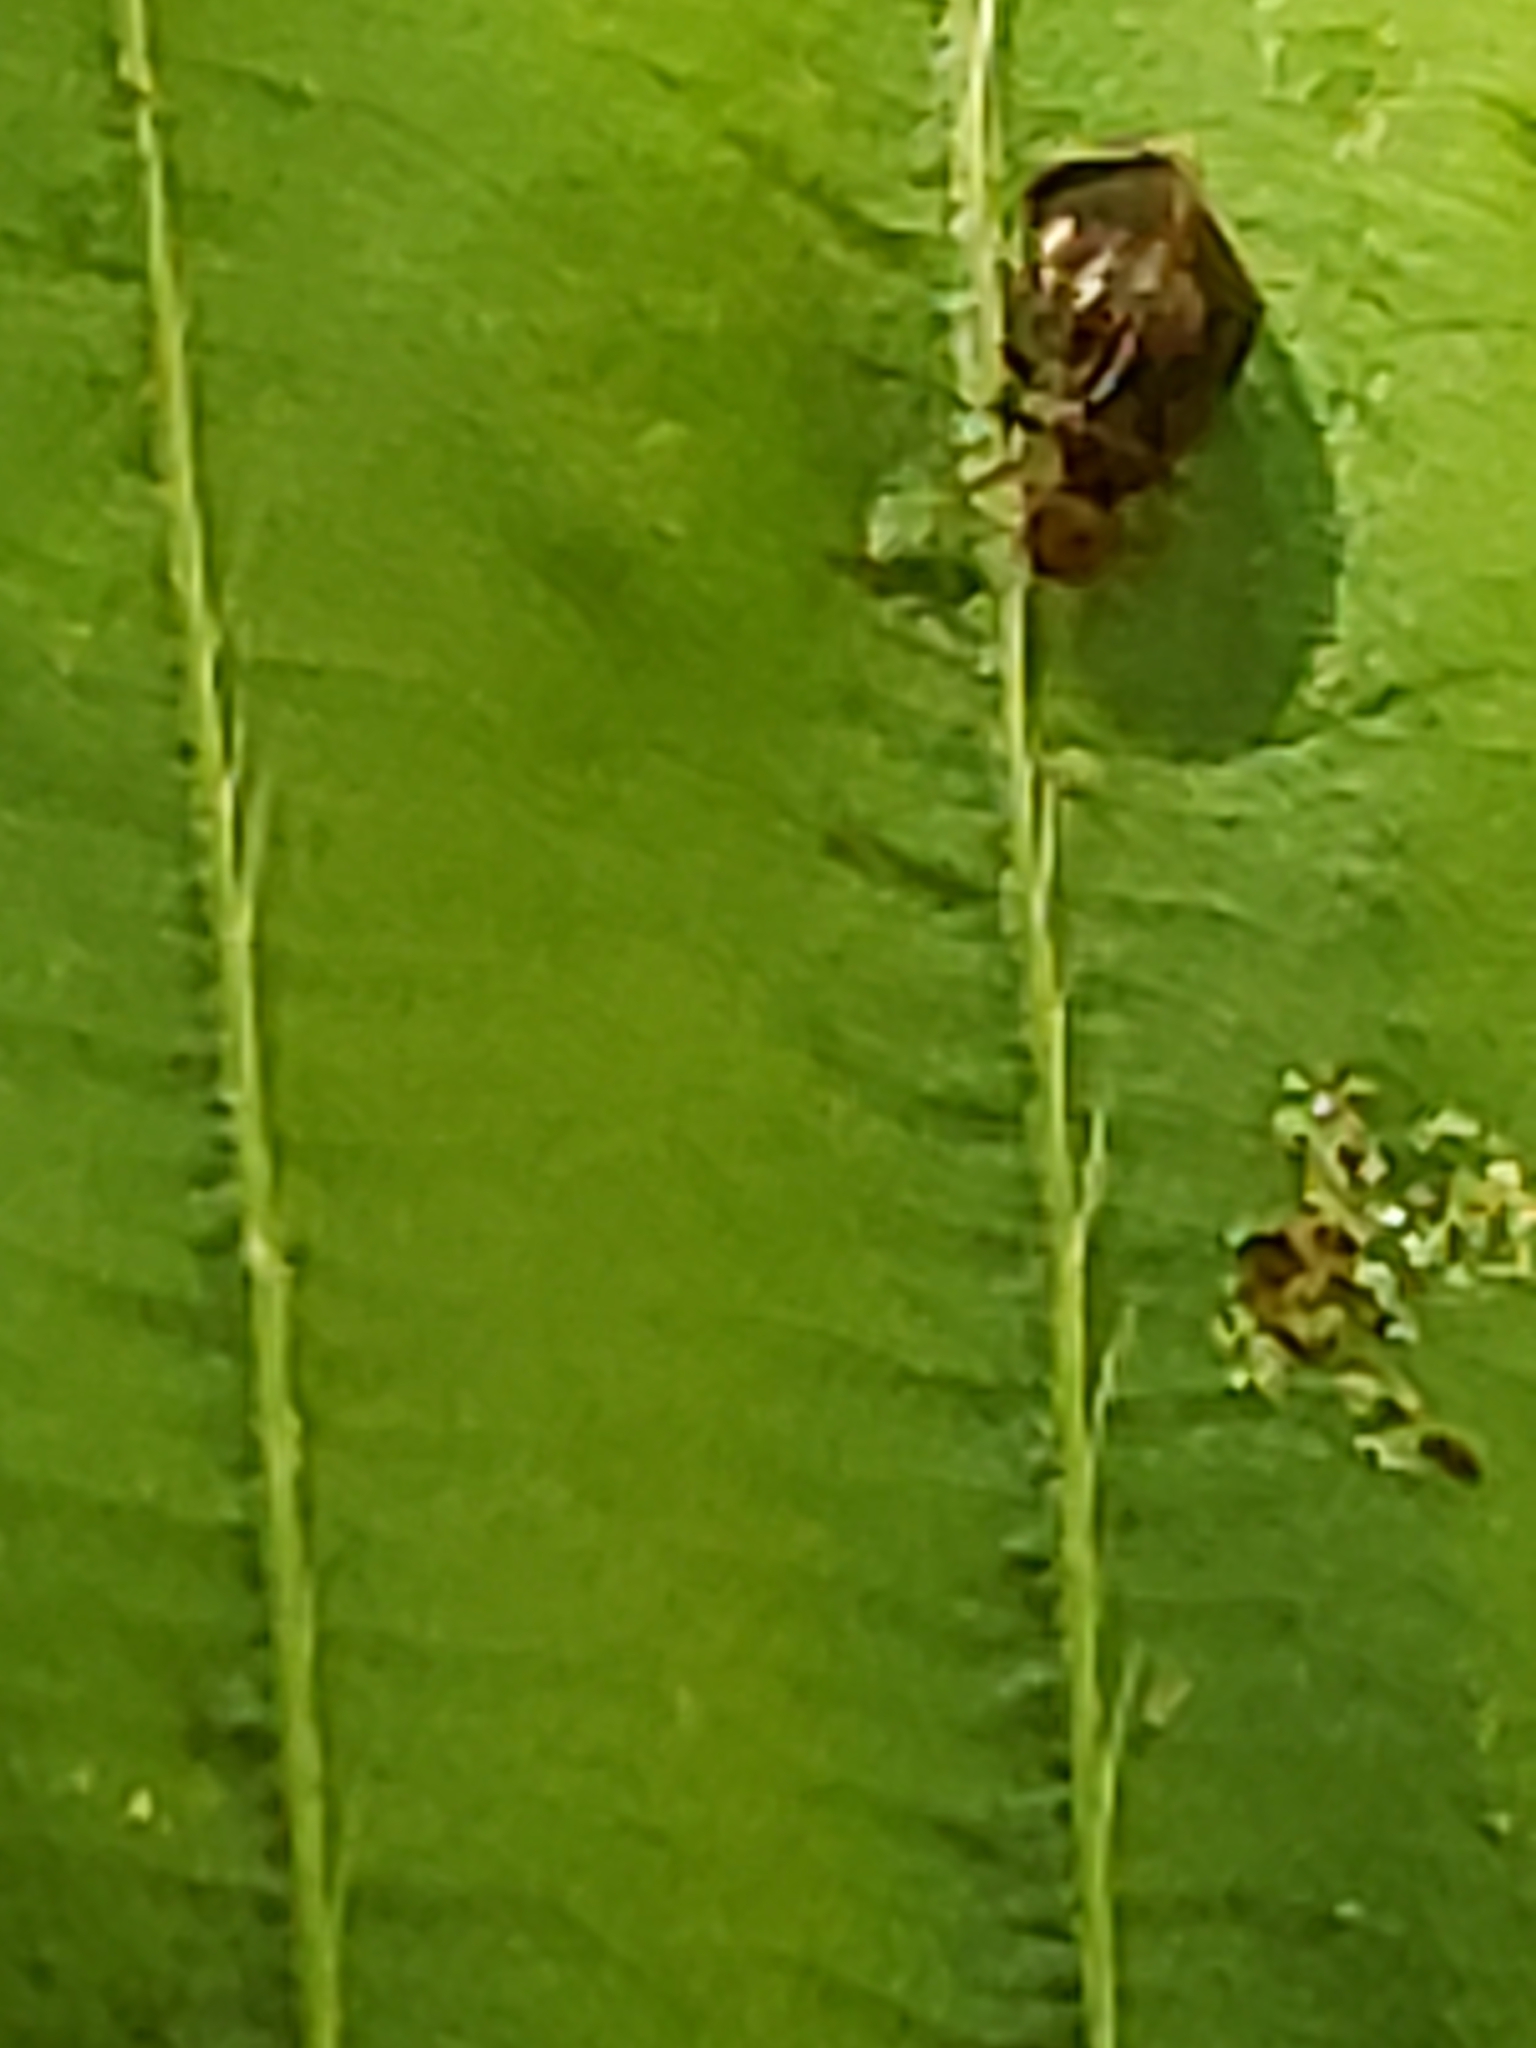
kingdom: Animalia
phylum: Arthropoda
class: Insecta
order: Psocodea
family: Amphipsocidae
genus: Polypsocus
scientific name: Polypsocus corruptus
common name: Corrupt barklouse
